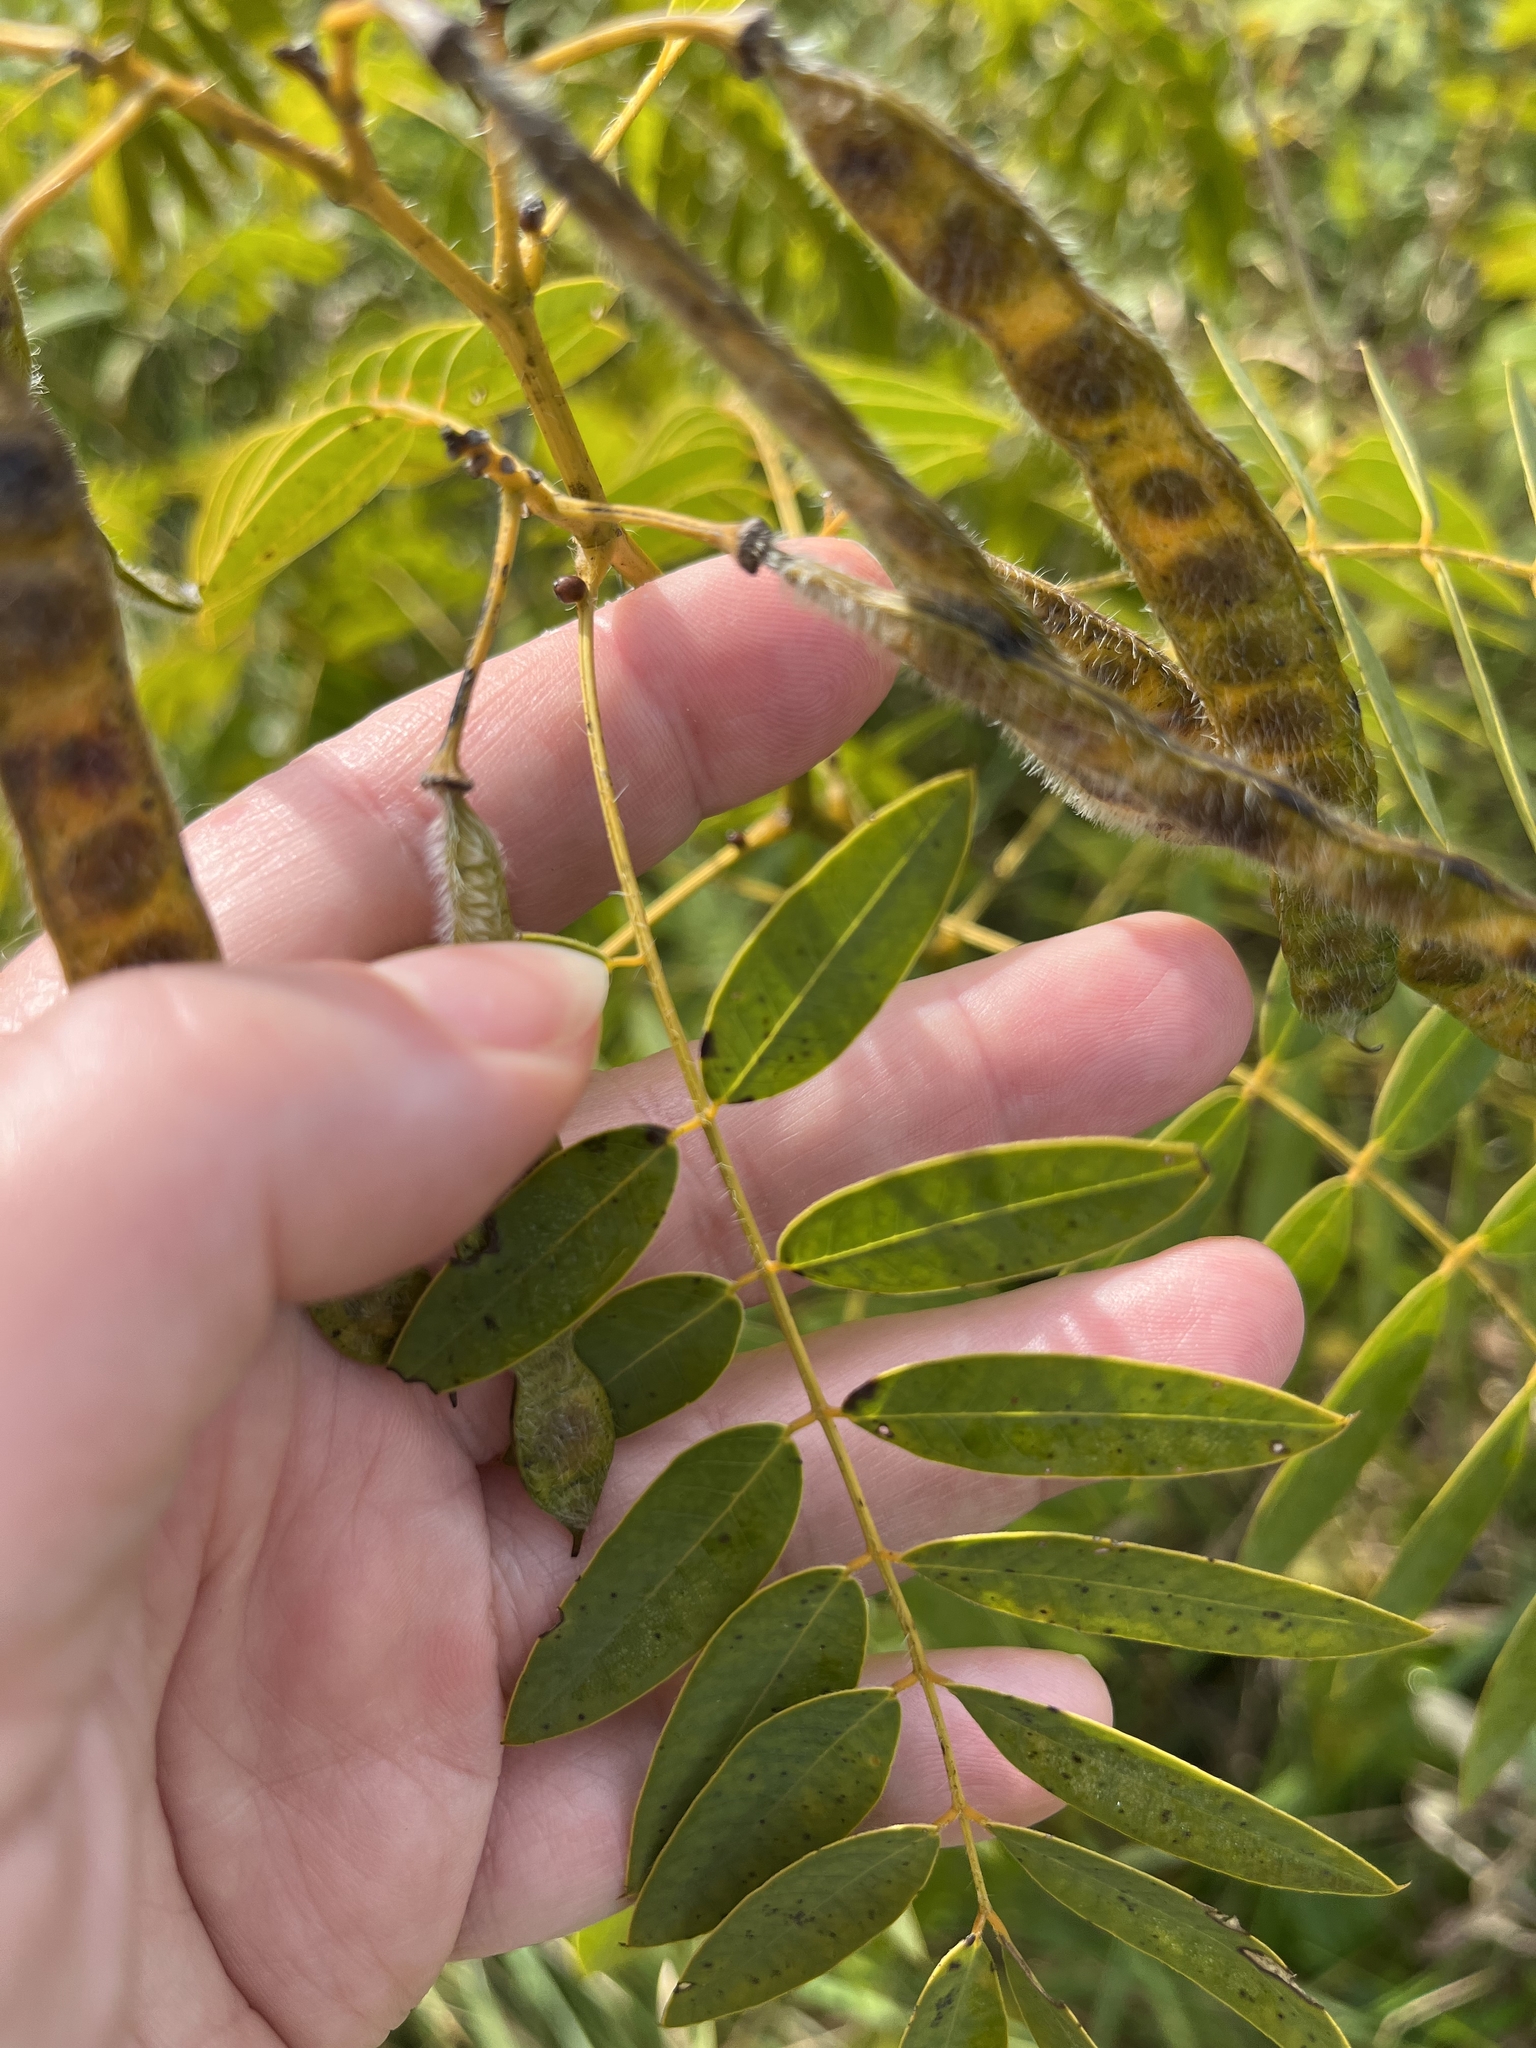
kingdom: Plantae
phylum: Tracheophyta
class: Magnoliopsida
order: Fabales
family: Fabaceae
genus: Senna
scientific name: Senna hebecarpa
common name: Wild senna
